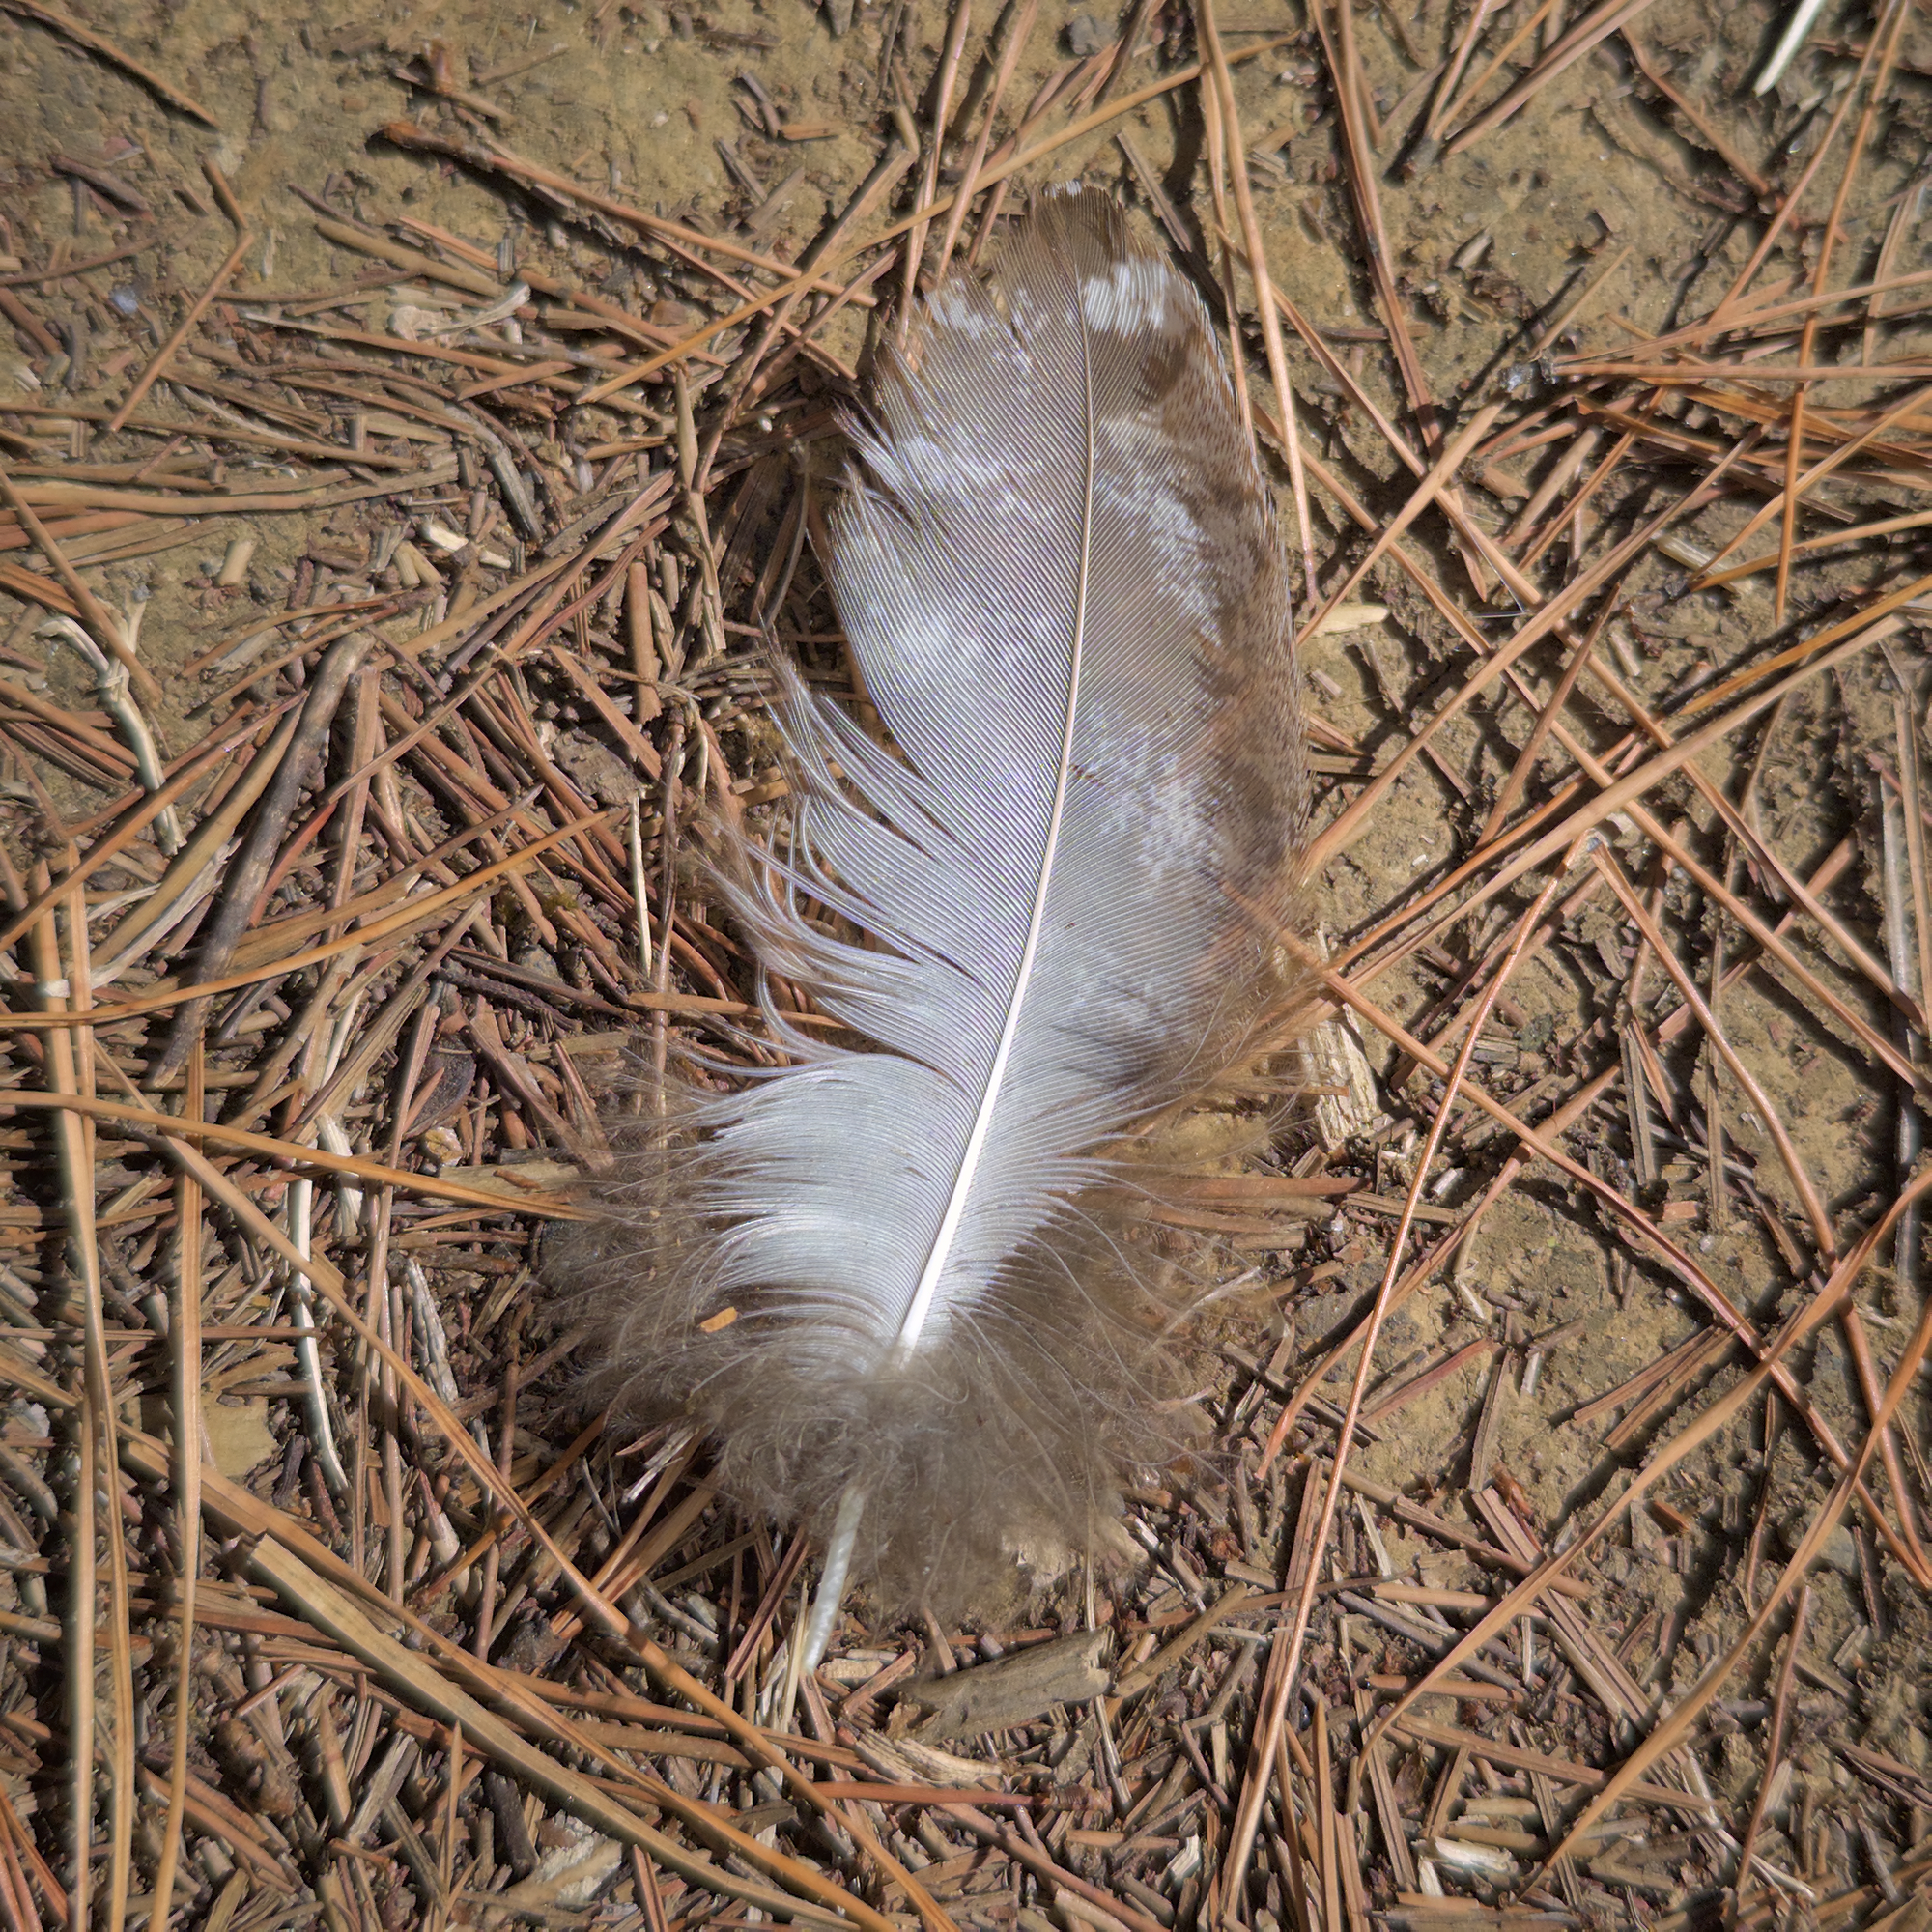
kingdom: Animalia
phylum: Chordata
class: Aves
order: Caprimulgiformes
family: Podargidae
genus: Podargus
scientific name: Podargus strigoides
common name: Tawny frogmouth
